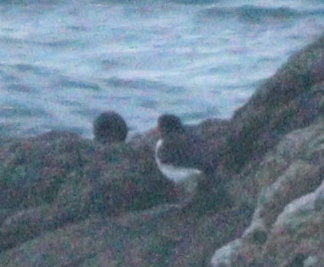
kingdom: Animalia
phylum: Chordata
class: Aves
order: Charadriiformes
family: Haematopodidae
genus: Haematopus
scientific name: Haematopus ostralegus
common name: Eurasian oystercatcher
